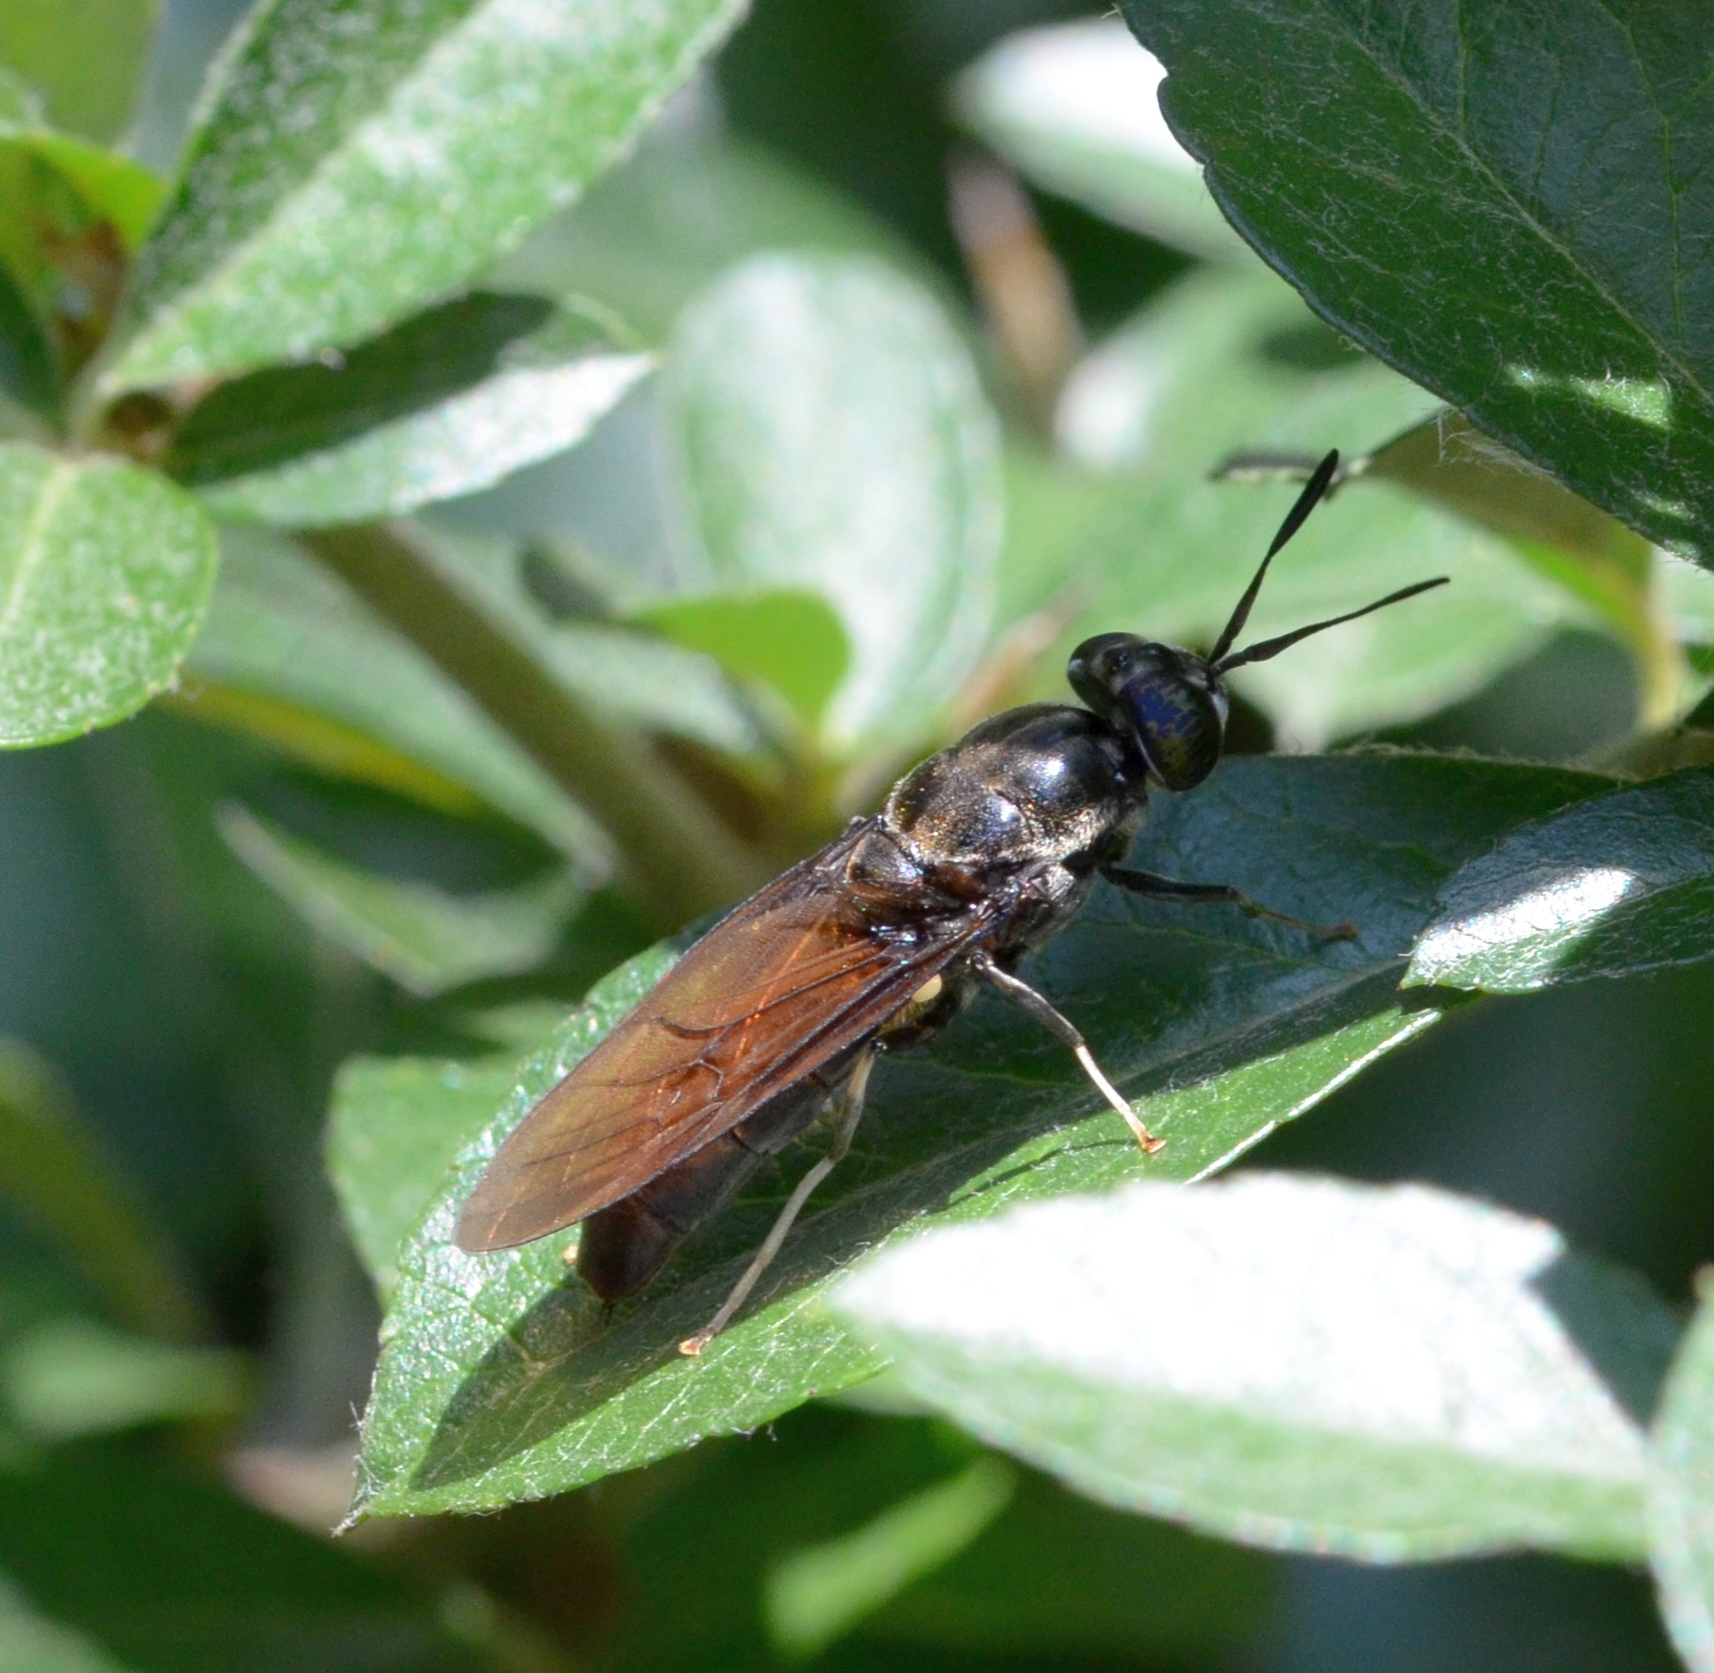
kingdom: Animalia
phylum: Arthropoda
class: Insecta
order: Diptera
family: Stratiomyidae
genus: Hermetia
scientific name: Hermetia illucens
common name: Black soldier fly
